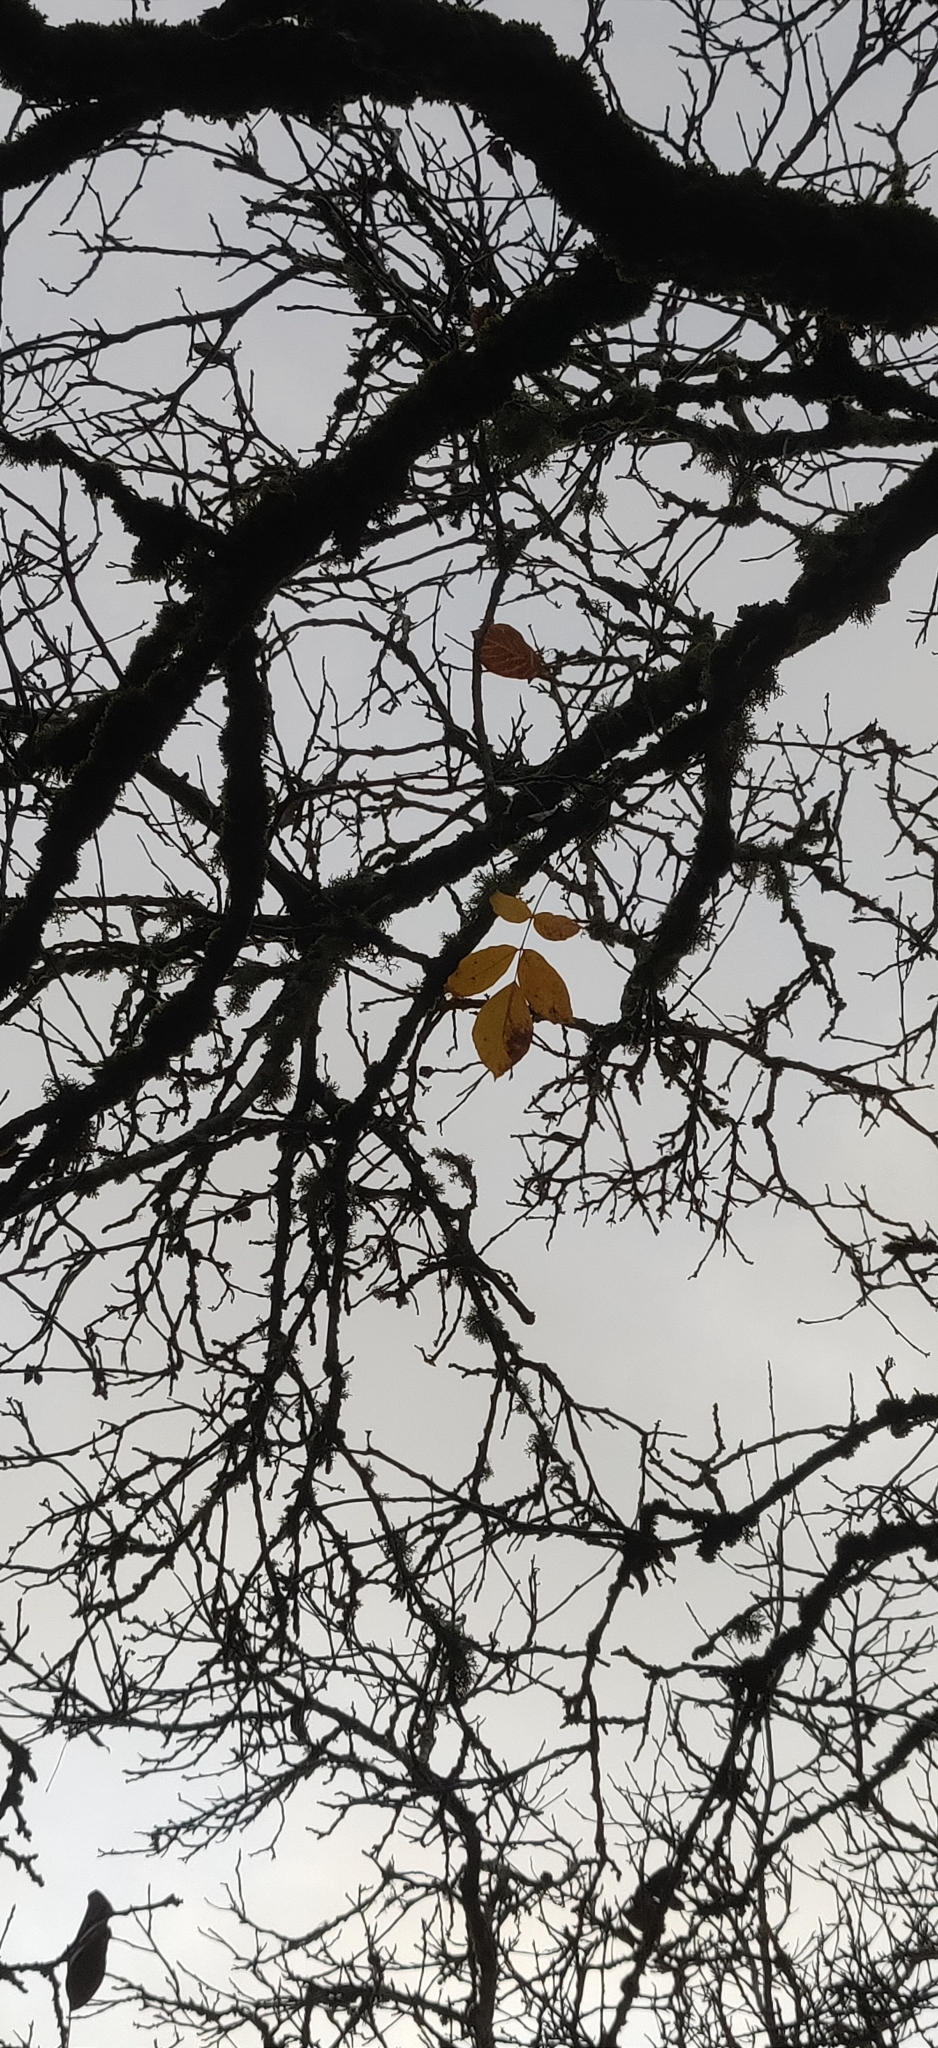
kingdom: Plantae
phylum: Tracheophyta
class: Magnoliopsida
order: Fagales
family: Juglandaceae
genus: Juglans
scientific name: Juglans regia
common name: Walnut
